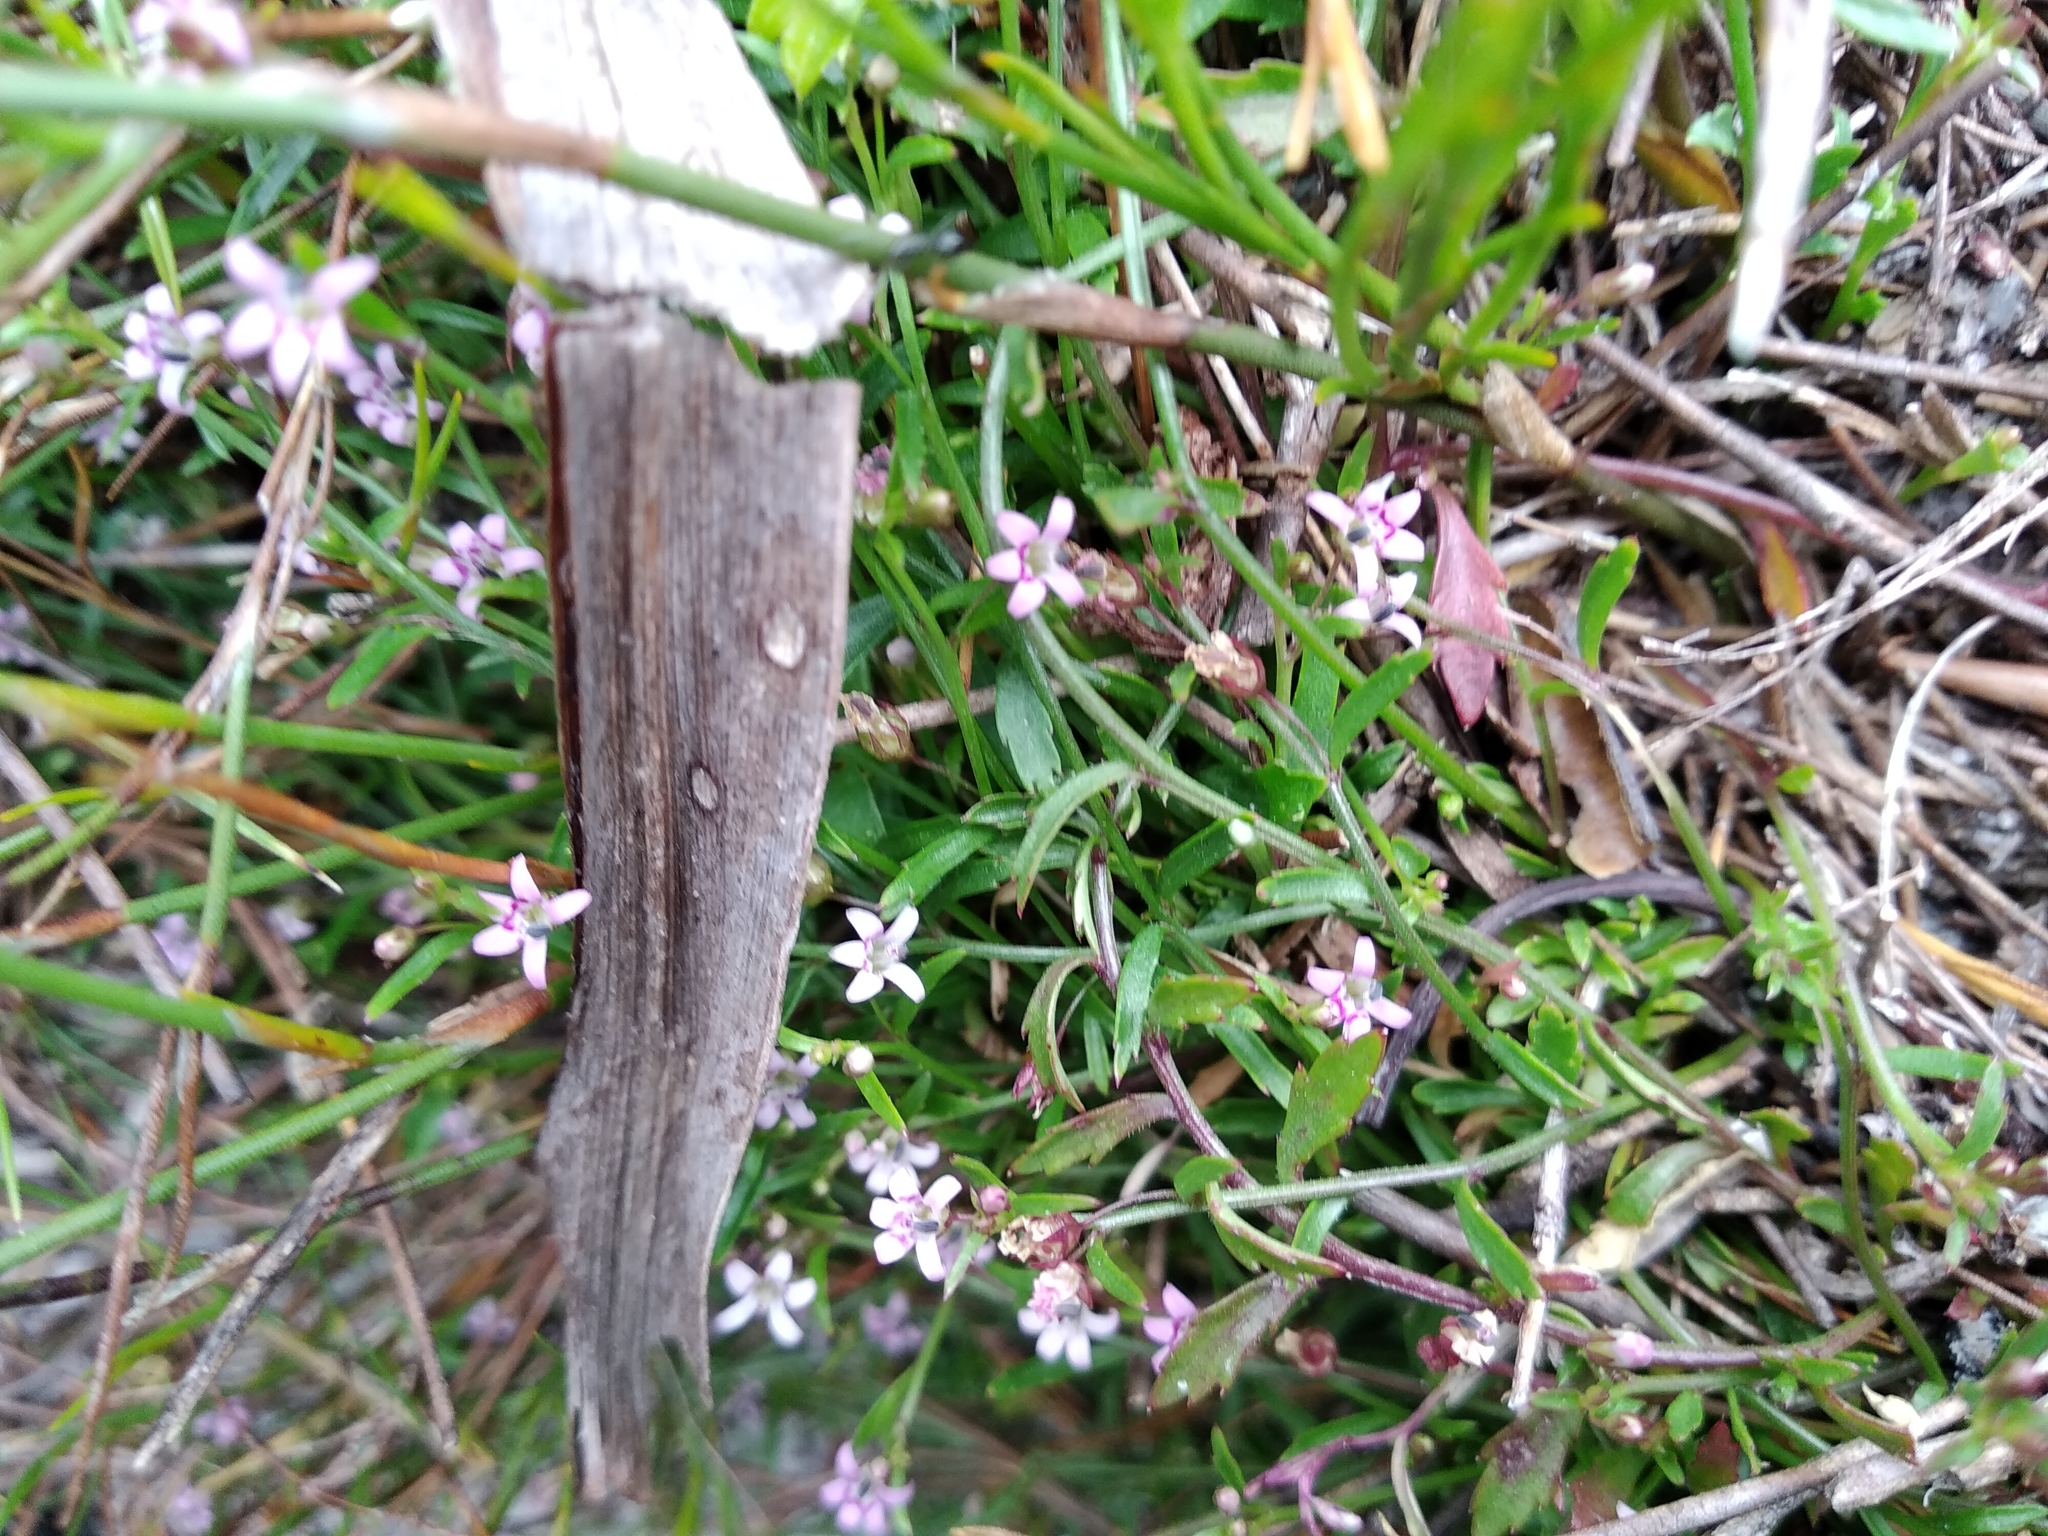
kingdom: Plantae
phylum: Tracheophyta
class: Magnoliopsida
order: Asterales
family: Campanulaceae
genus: Lobelia
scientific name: Lobelia eckloniana
